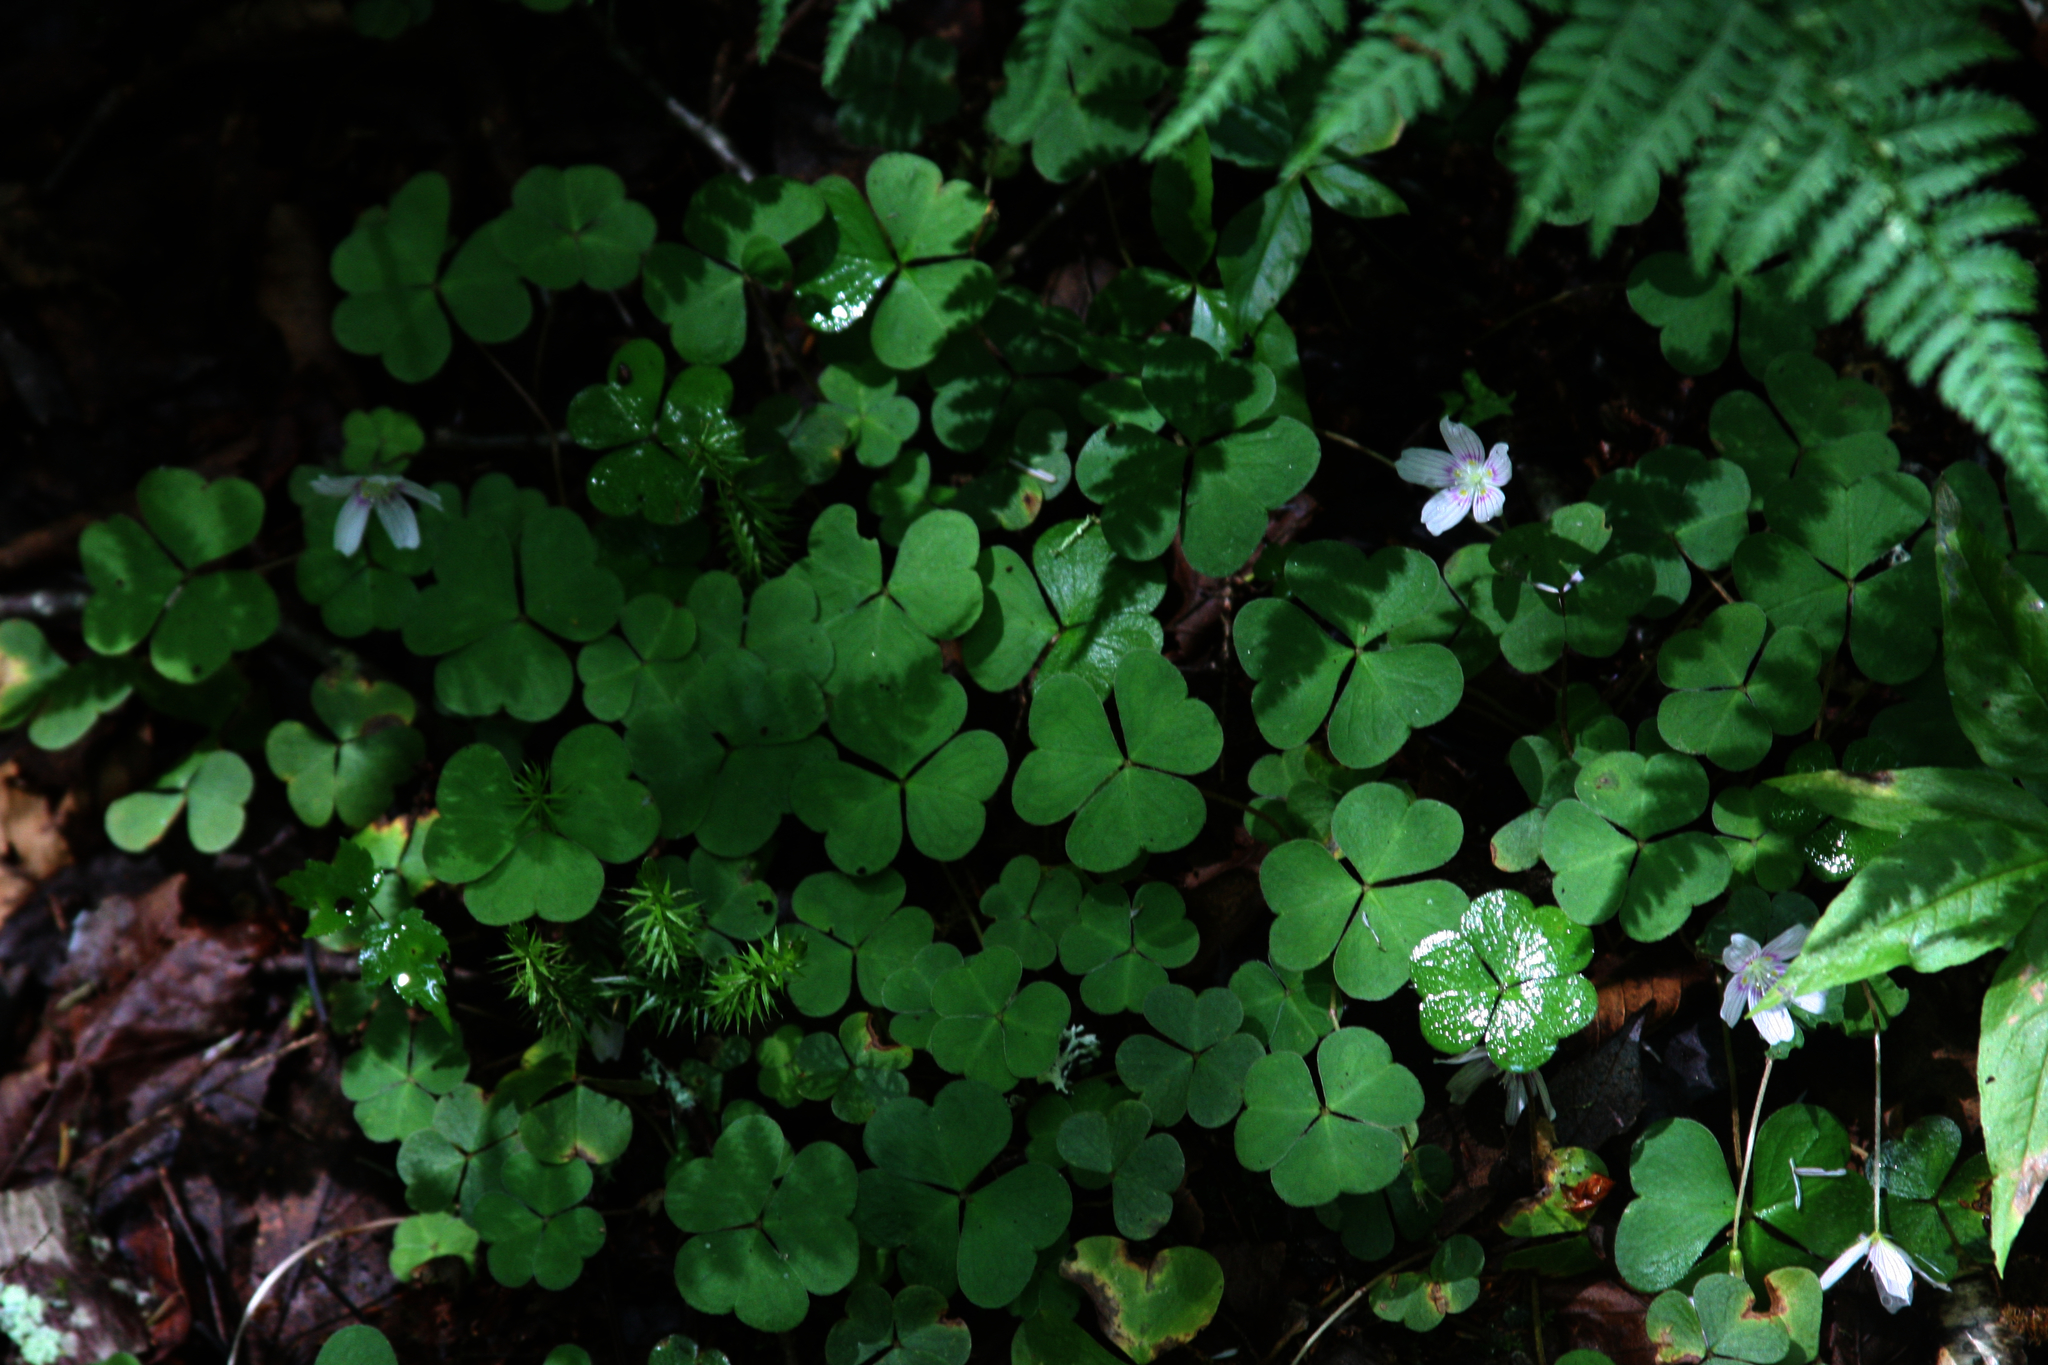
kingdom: Plantae
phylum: Tracheophyta
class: Magnoliopsida
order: Oxalidales
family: Oxalidaceae
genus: Oxalis
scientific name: Oxalis montana
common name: American wood-sorrel
